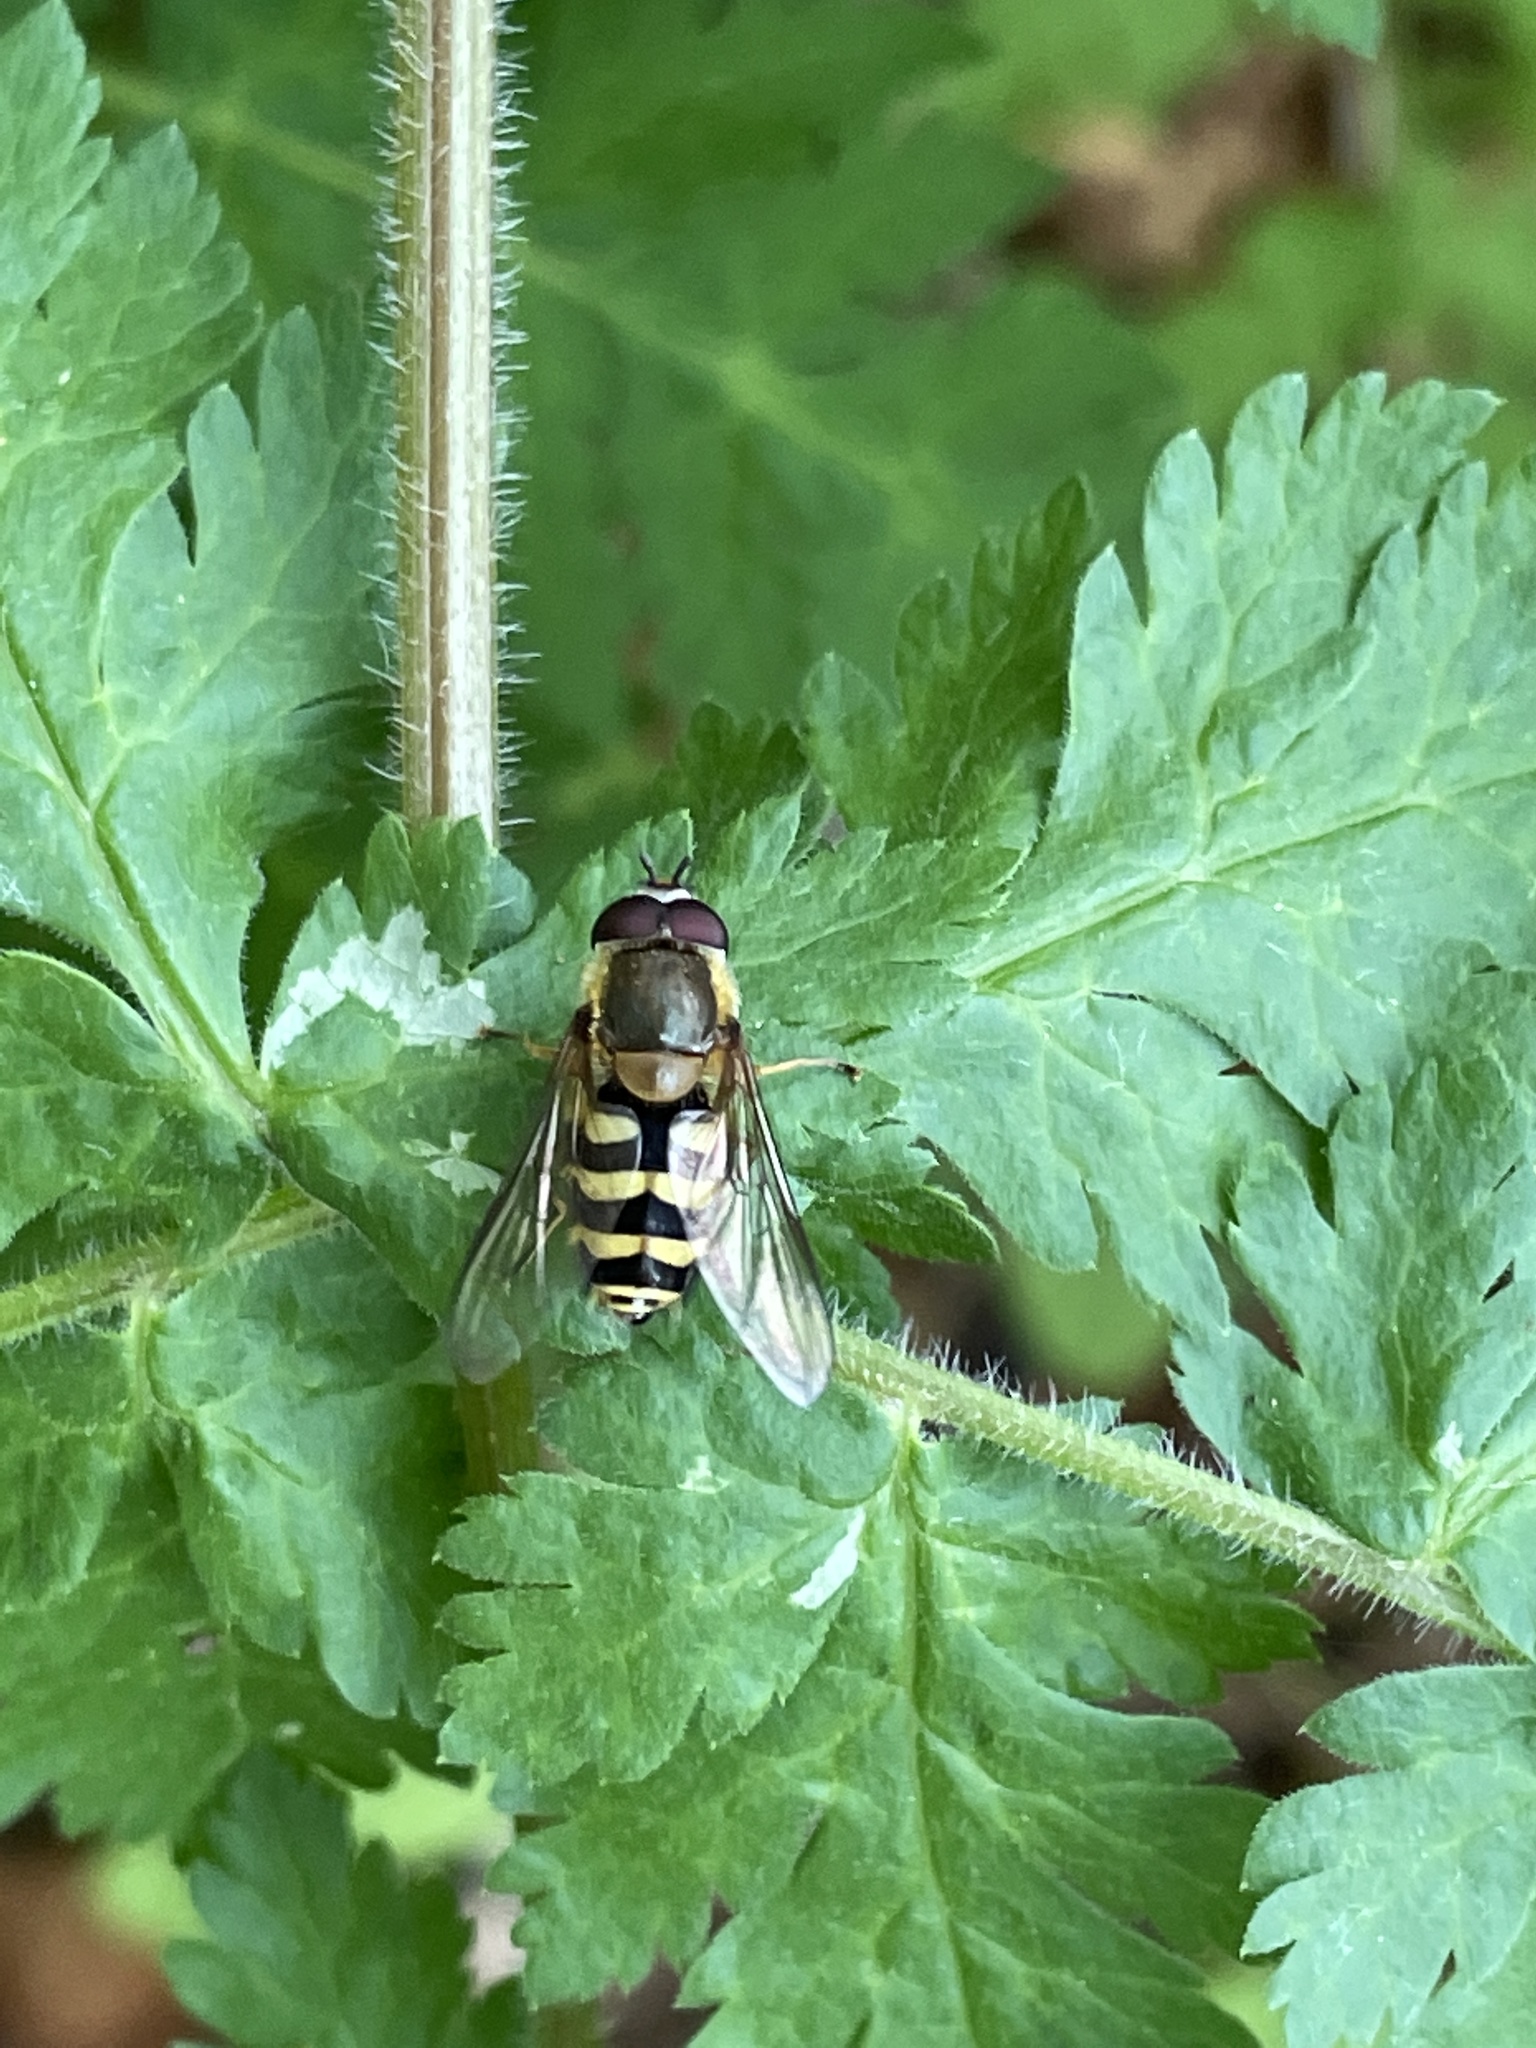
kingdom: Animalia
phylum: Arthropoda
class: Insecta
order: Diptera
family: Syrphidae
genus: Syrphus
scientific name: Syrphus
